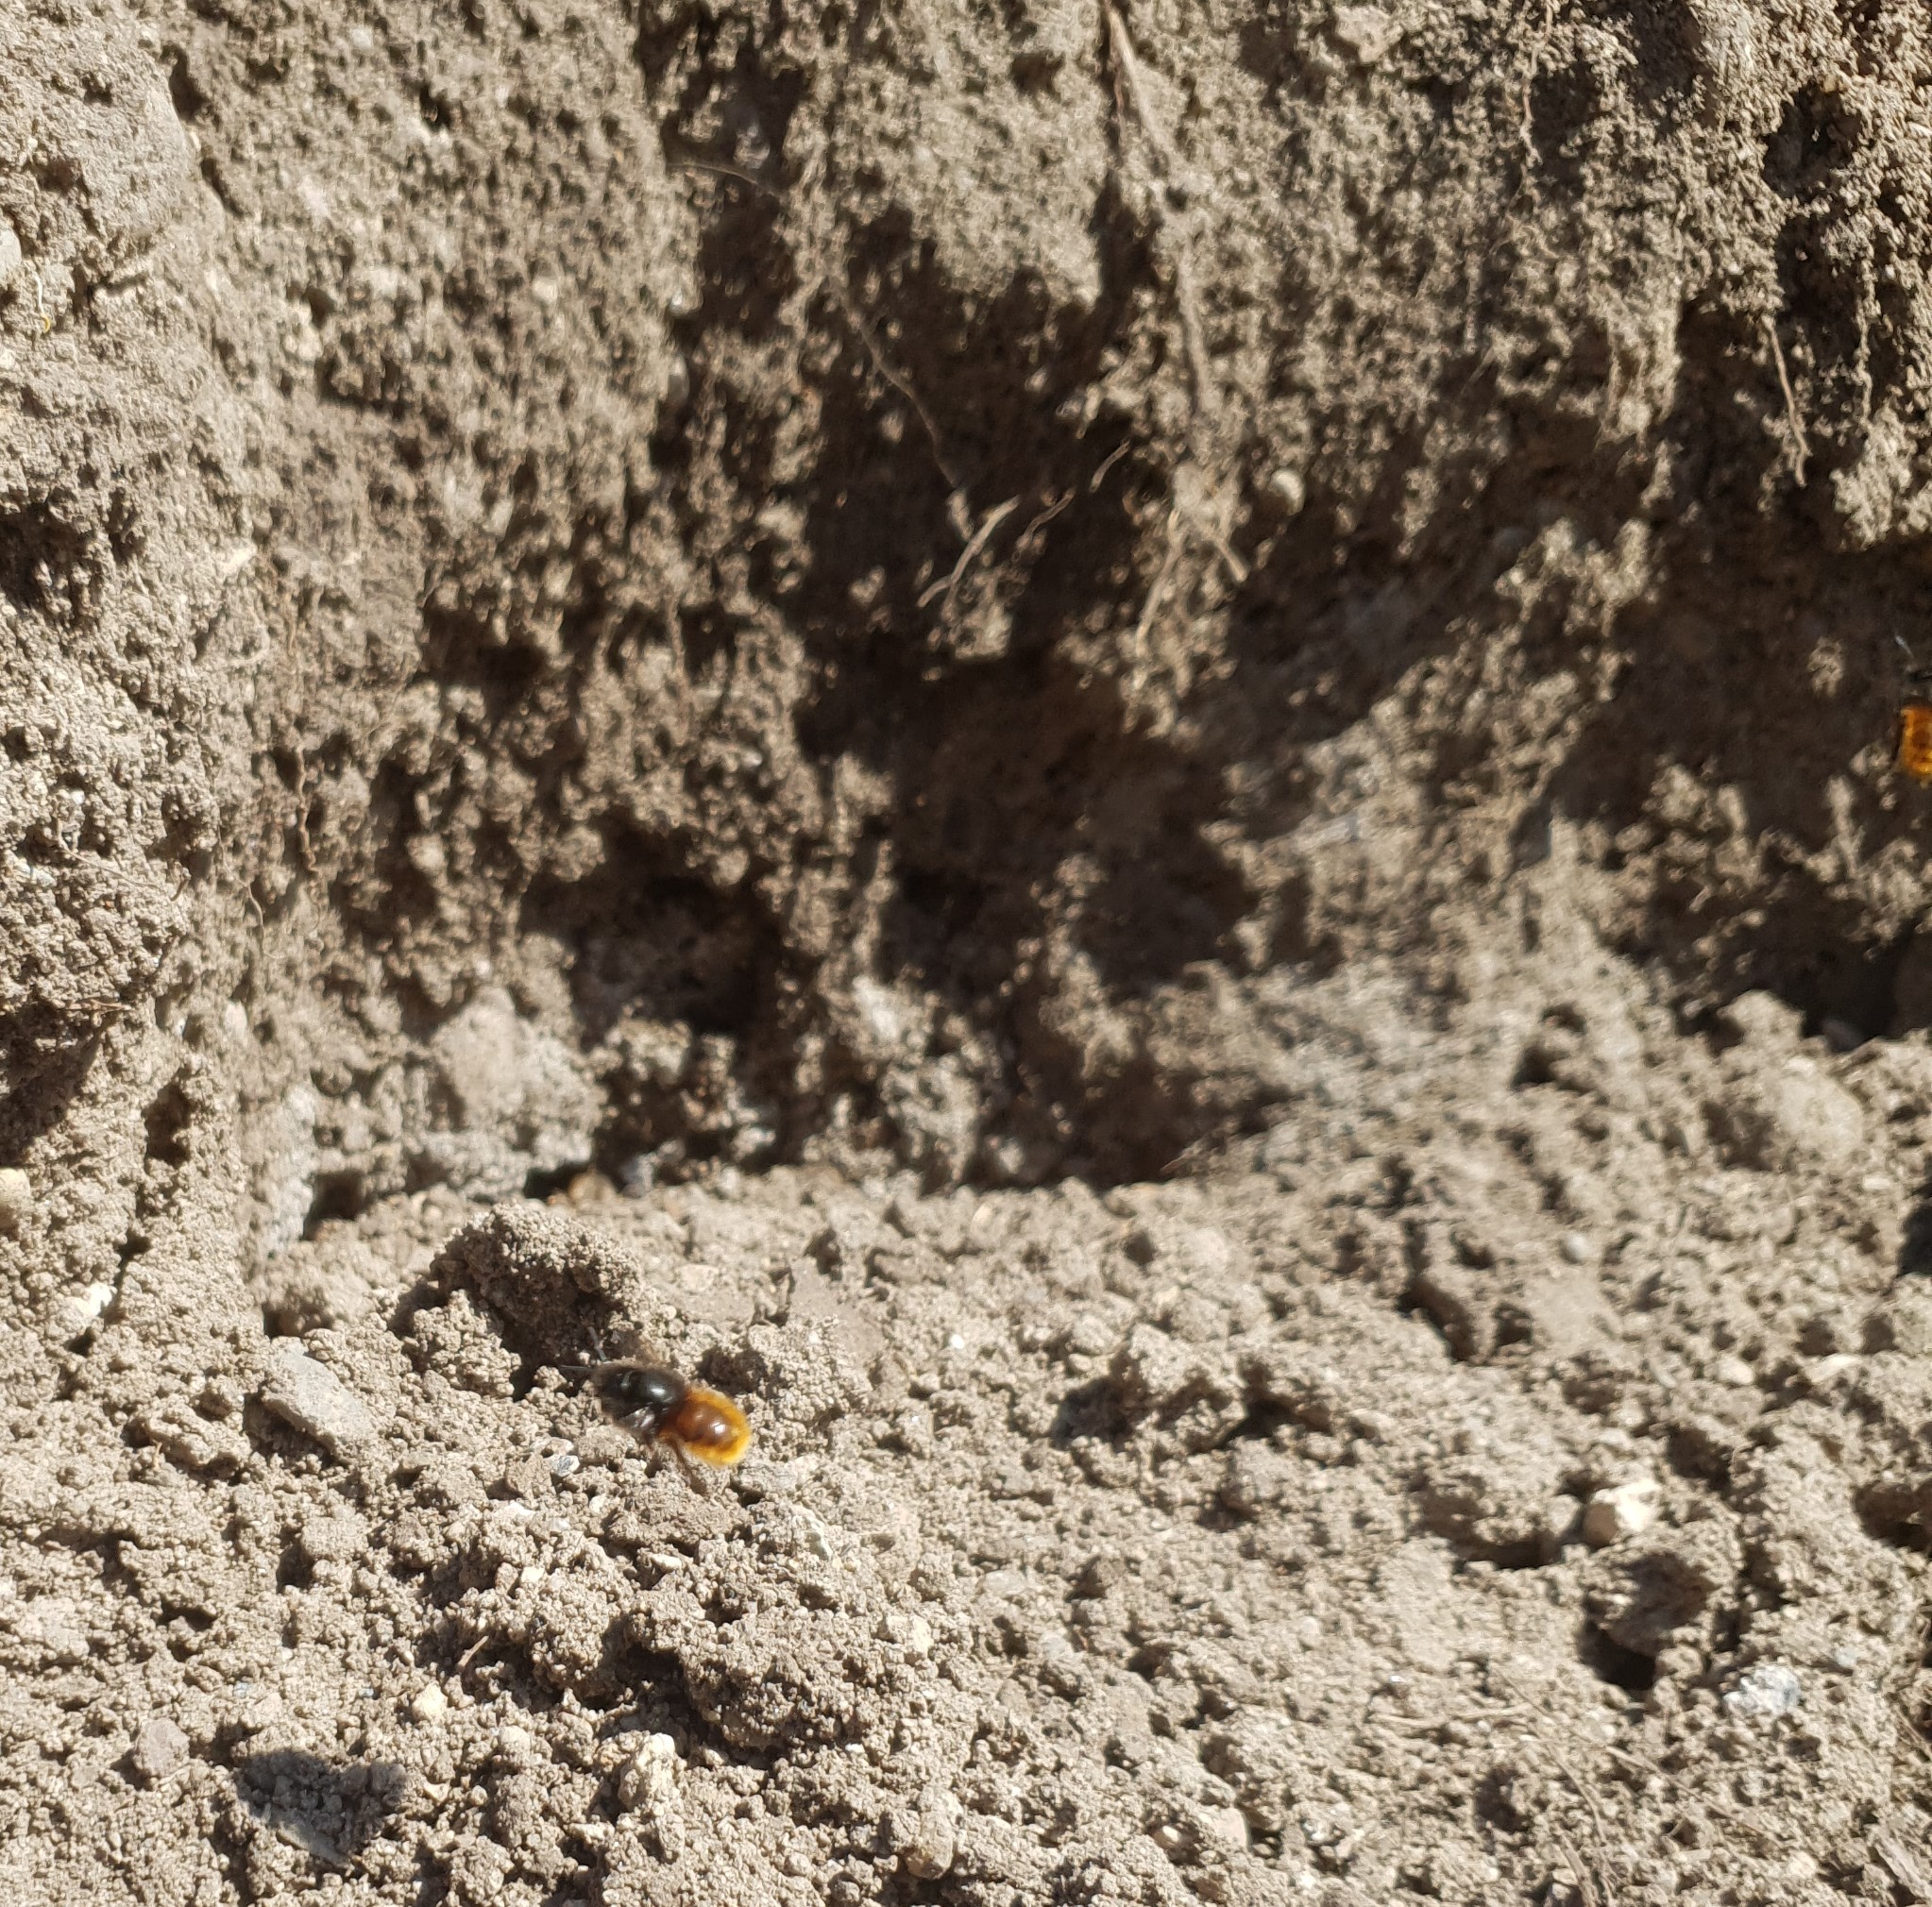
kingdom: Animalia
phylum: Arthropoda
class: Insecta
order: Hymenoptera
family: Megachilidae
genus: Osmia
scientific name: Osmia cornuta
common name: Mason bee
